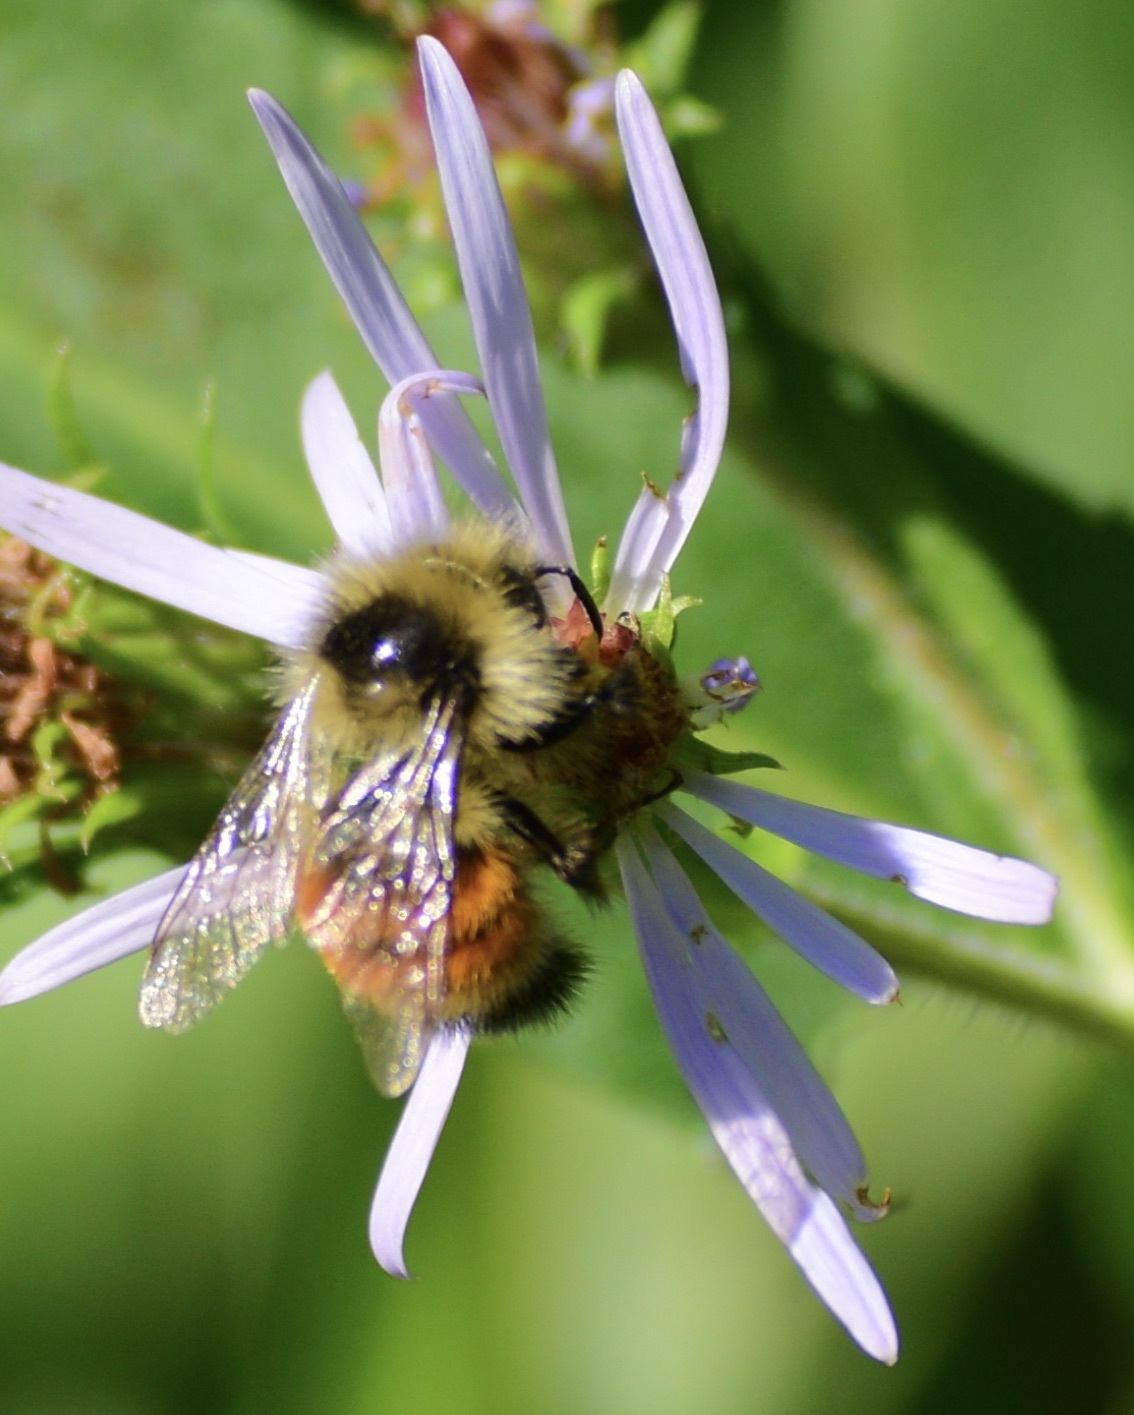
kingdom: Animalia
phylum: Arthropoda
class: Insecta
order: Hymenoptera
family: Apidae
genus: Bombus
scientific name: Bombus ternarius
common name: Tri-colored bumble bee
